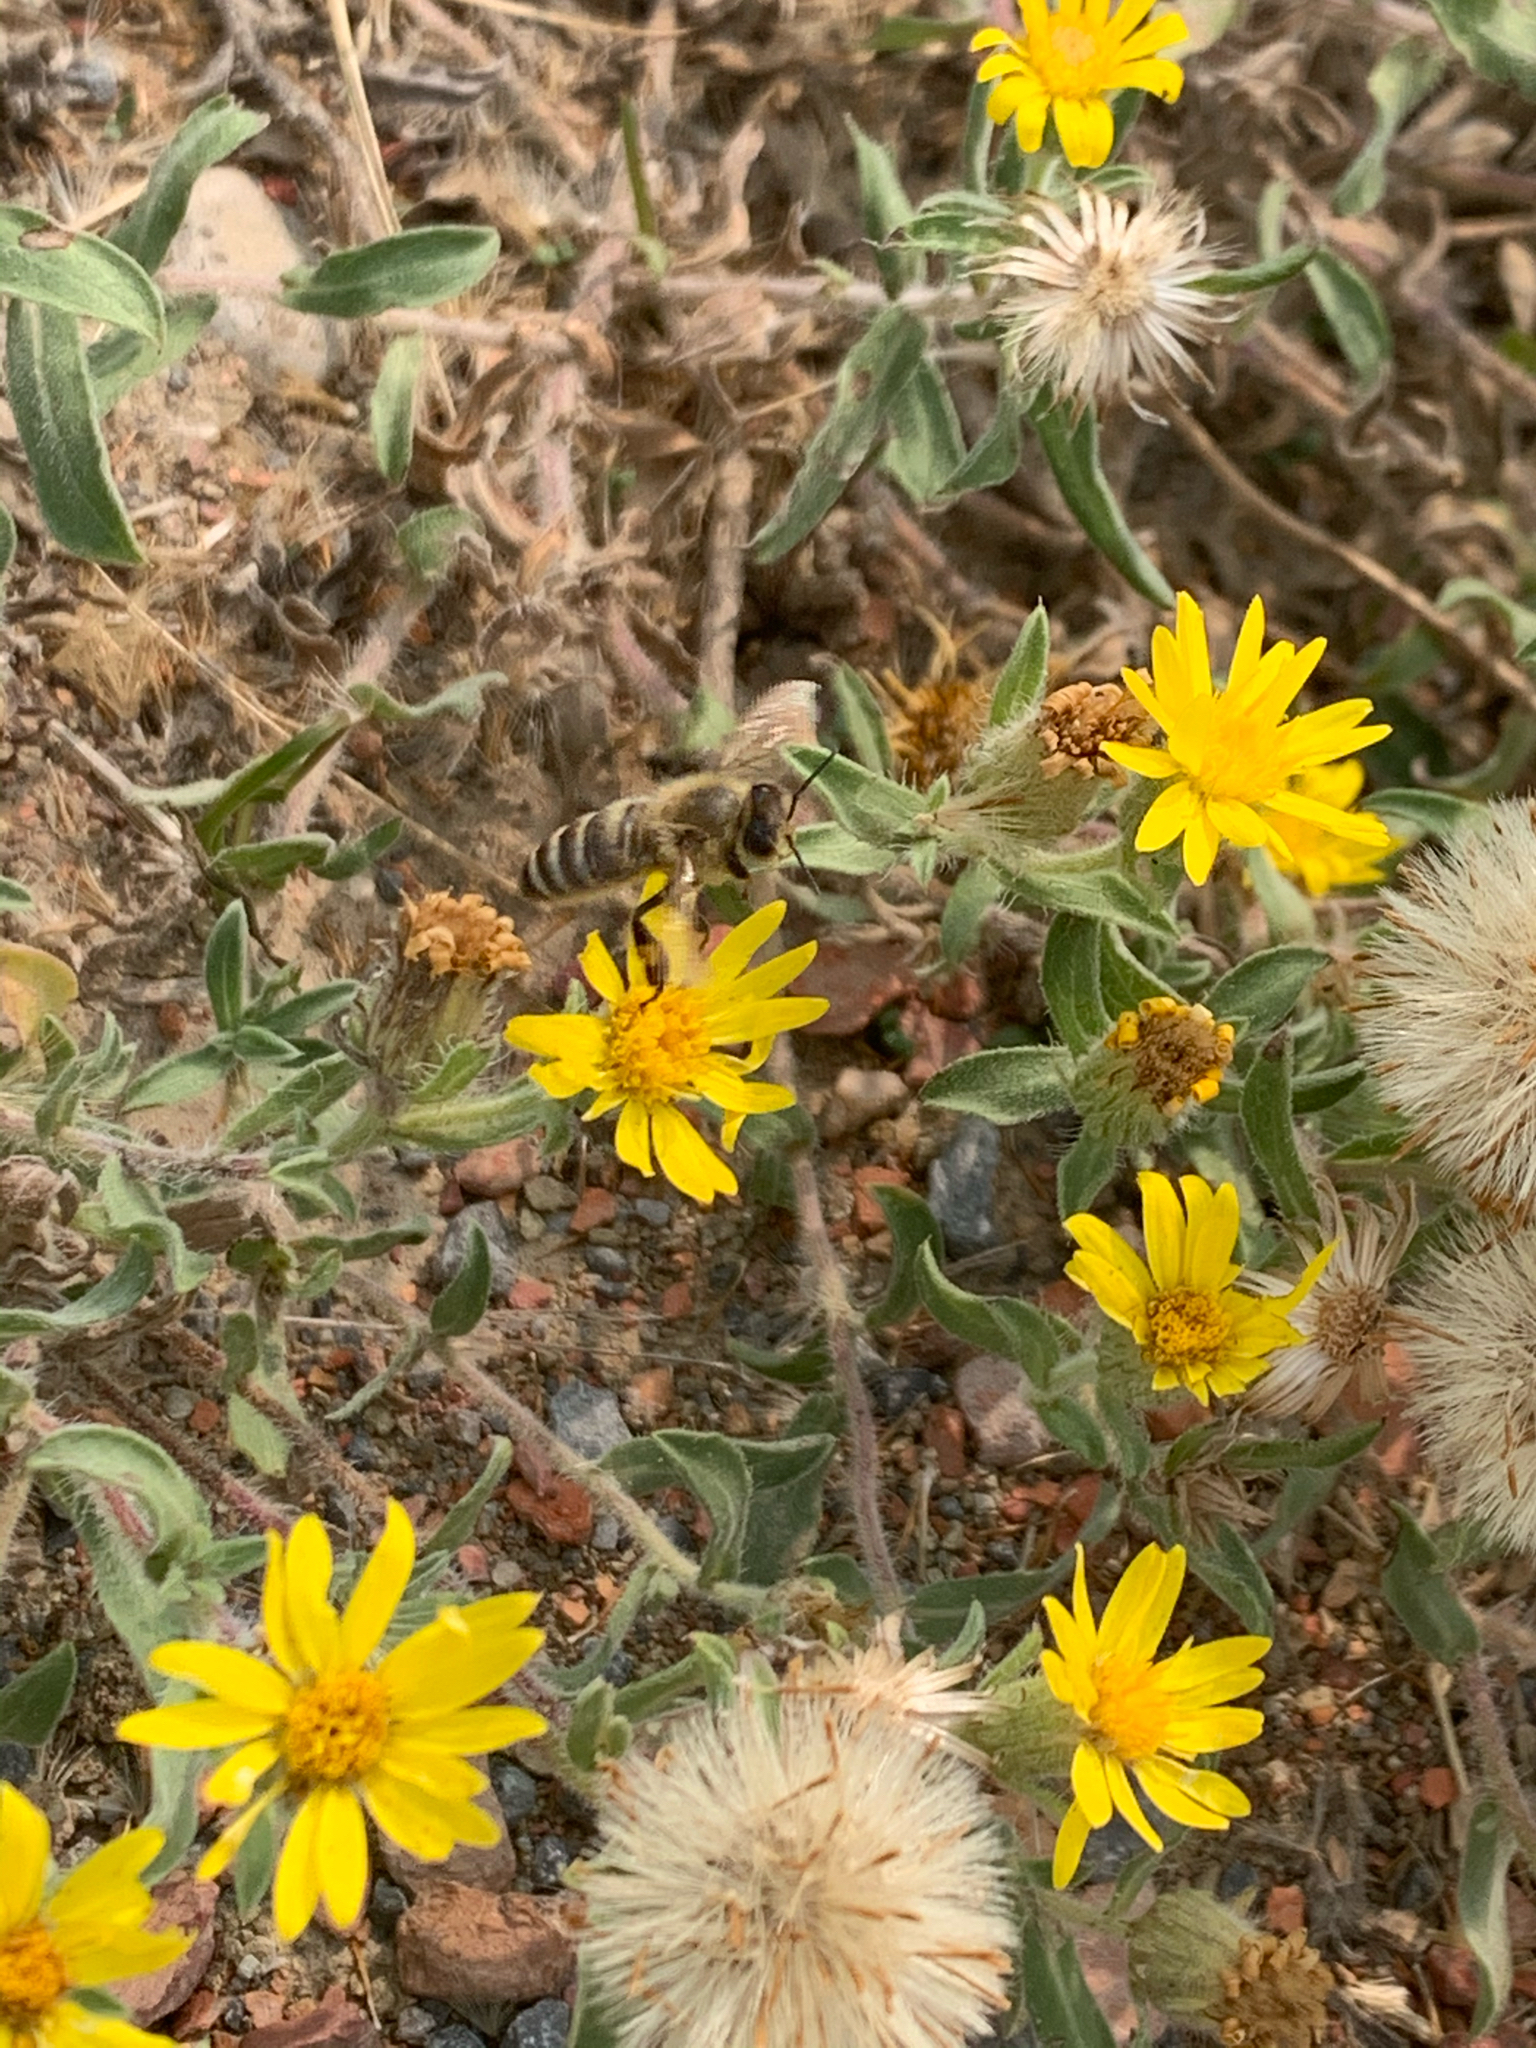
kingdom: Plantae
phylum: Tracheophyta
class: Magnoliopsida
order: Asterales
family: Asteraceae
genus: Heterotheca
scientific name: Heterotheca villosa
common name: Hairy false goldenaster
